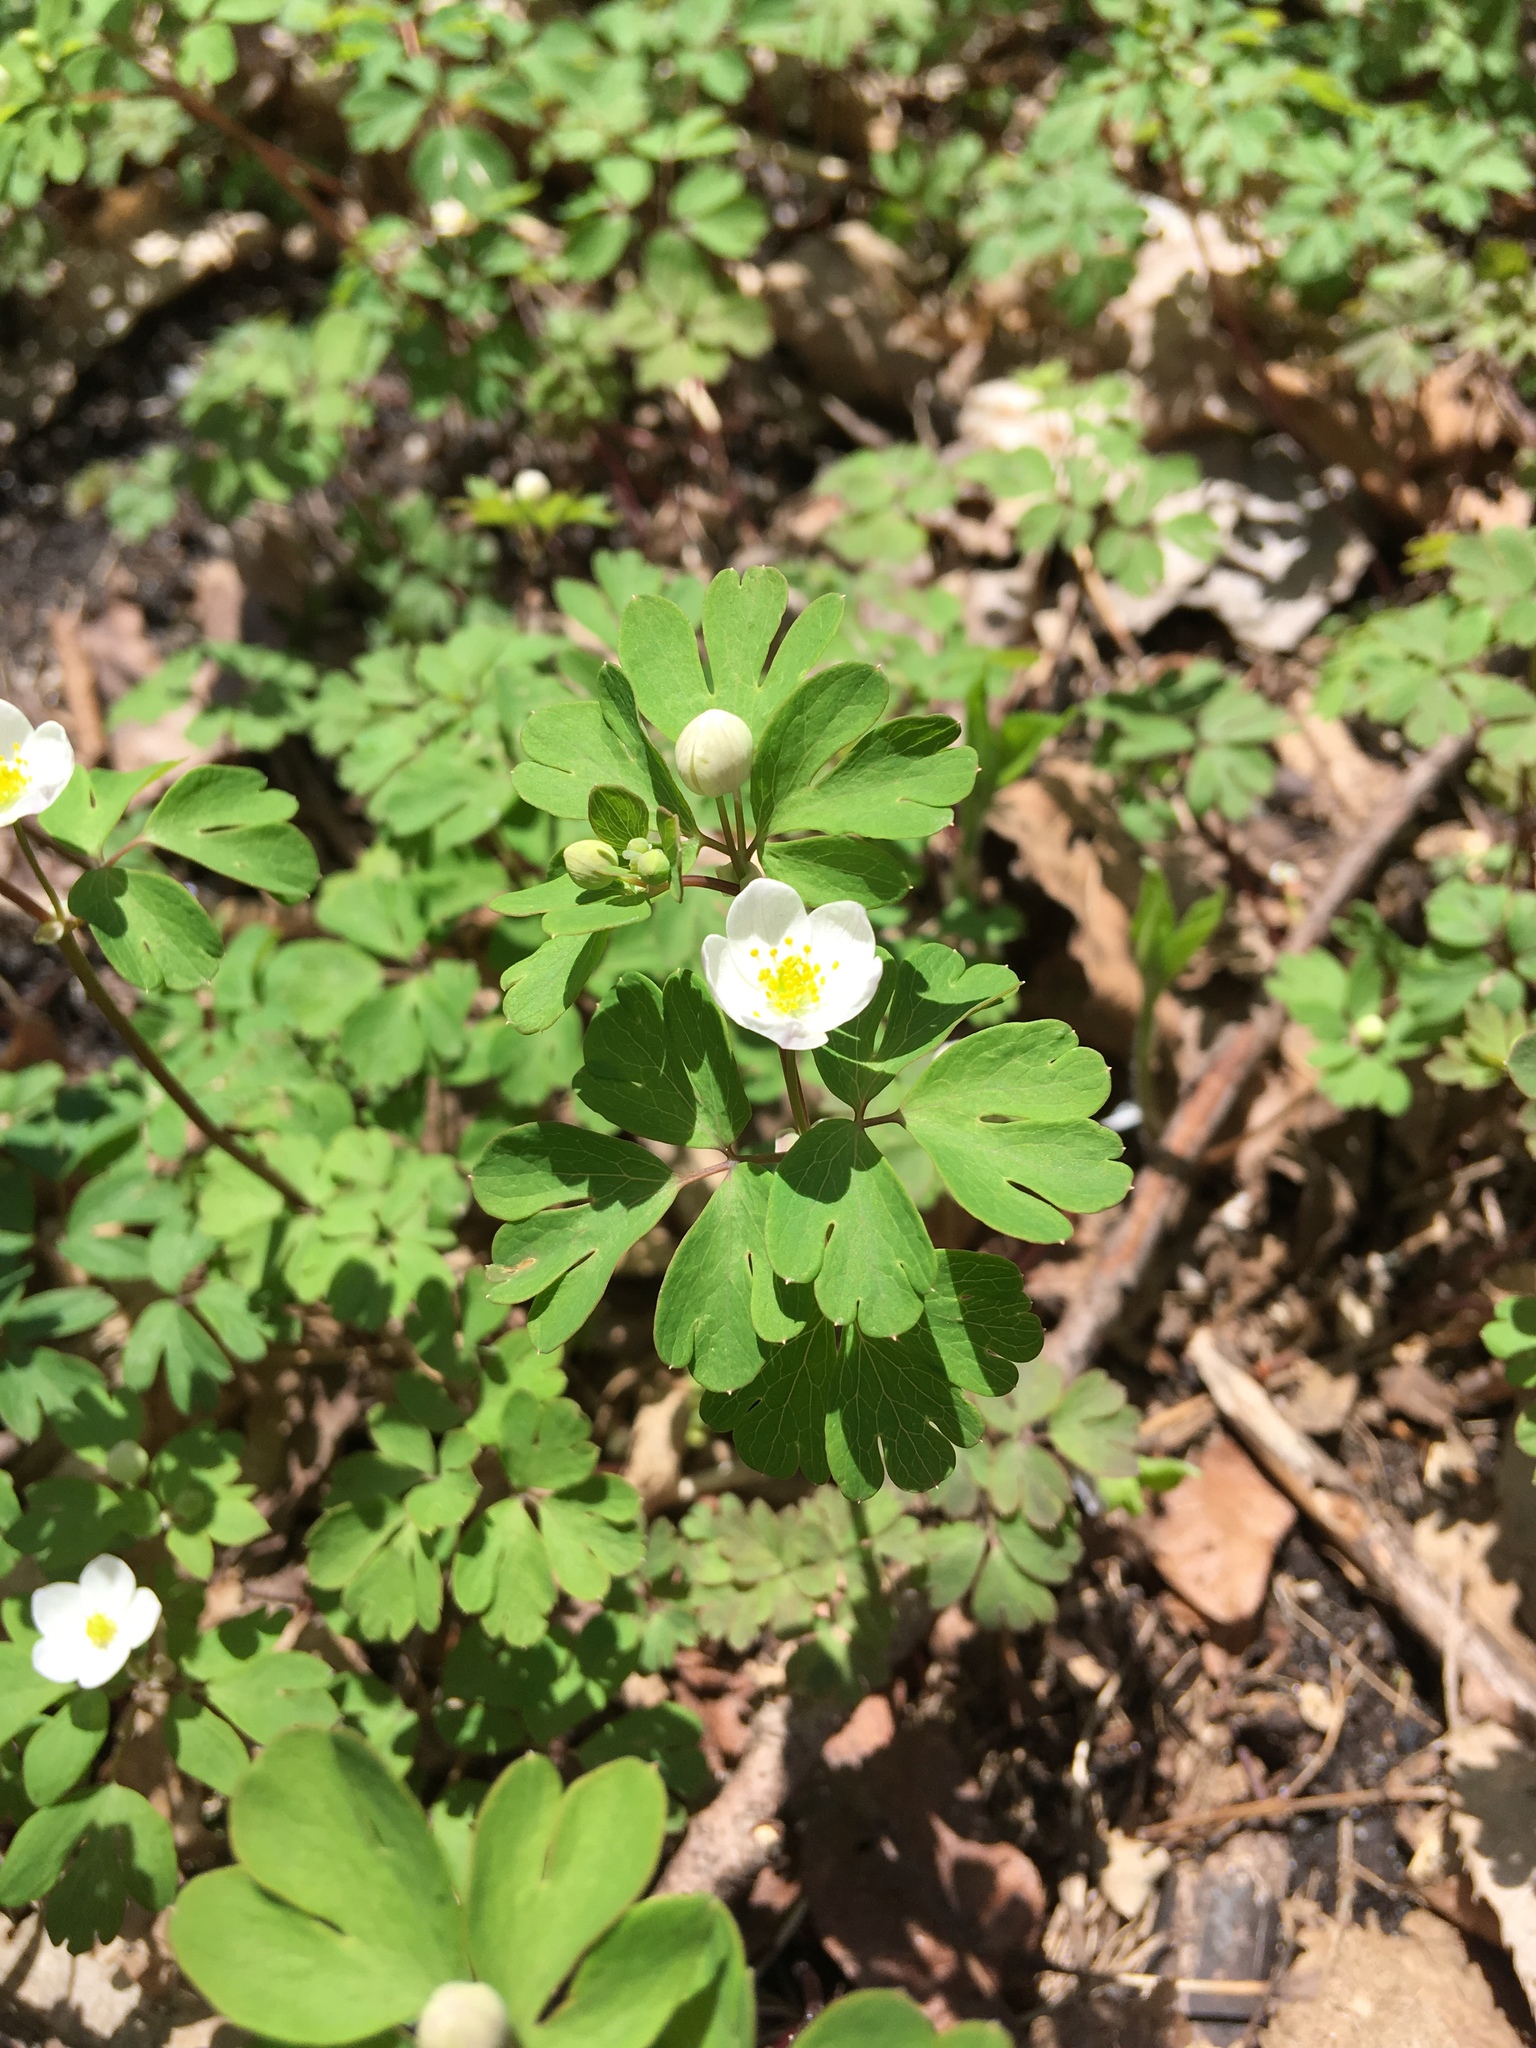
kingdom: Plantae
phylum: Tracheophyta
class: Magnoliopsida
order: Ranunculales
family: Ranunculaceae
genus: Enemion
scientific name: Enemion biternatum
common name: Eastern false rue-anemone
